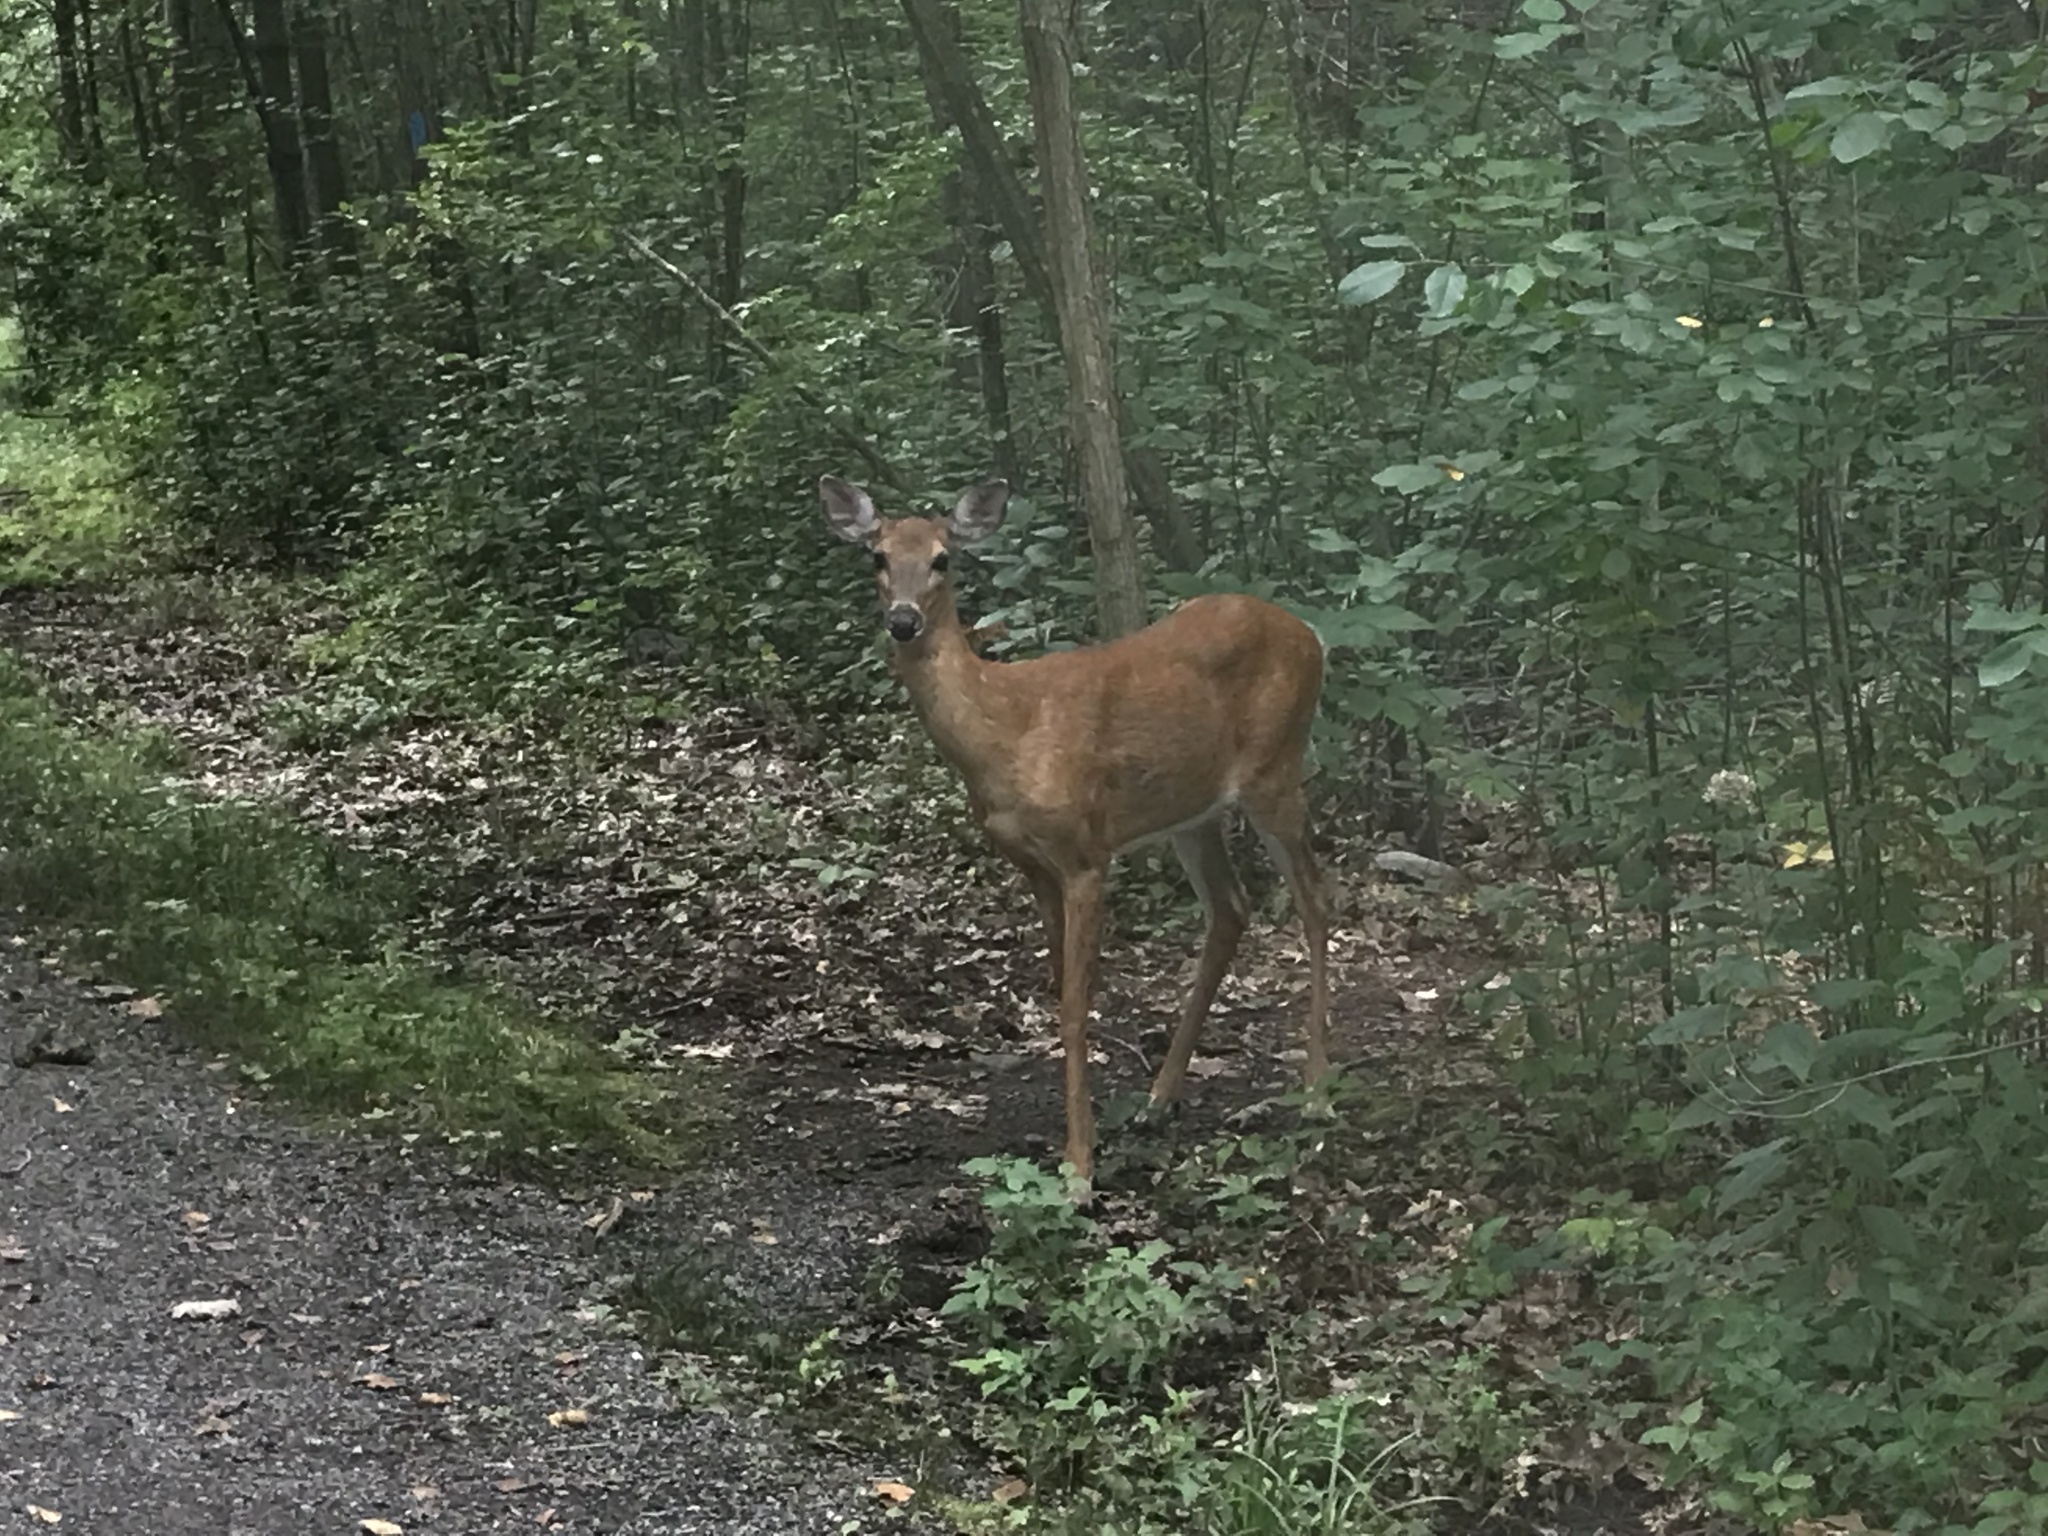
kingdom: Animalia
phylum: Chordata
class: Mammalia
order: Artiodactyla
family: Cervidae
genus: Odocoileus
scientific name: Odocoileus virginianus
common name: White-tailed deer
